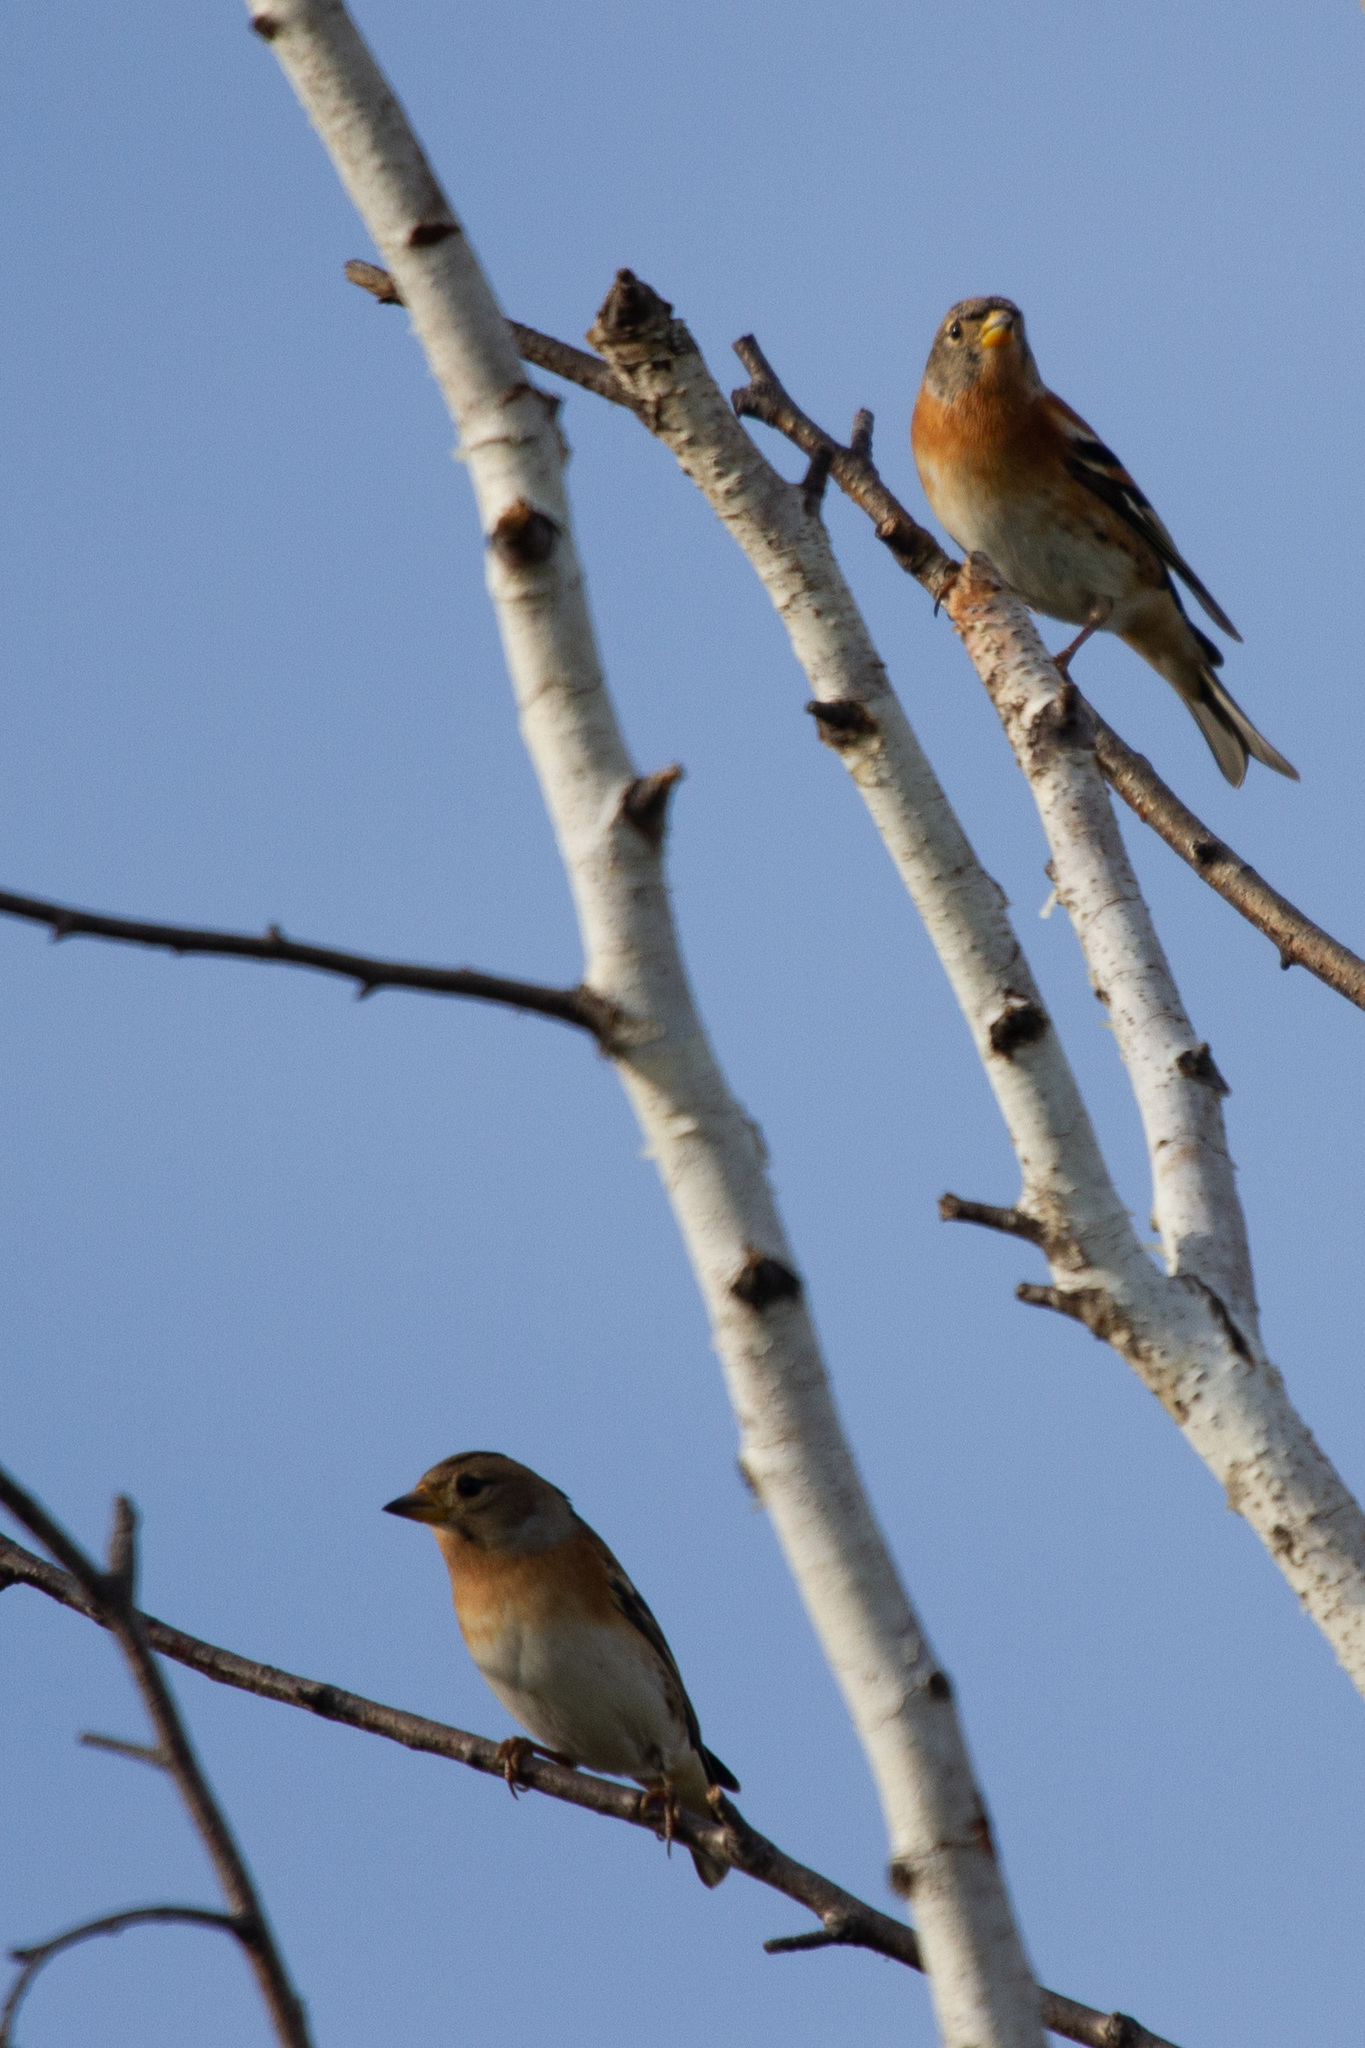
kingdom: Animalia
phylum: Chordata
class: Aves
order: Passeriformes
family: Fringillidae
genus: Fringilla
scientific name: Fringilla montifringilla
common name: Brambling
